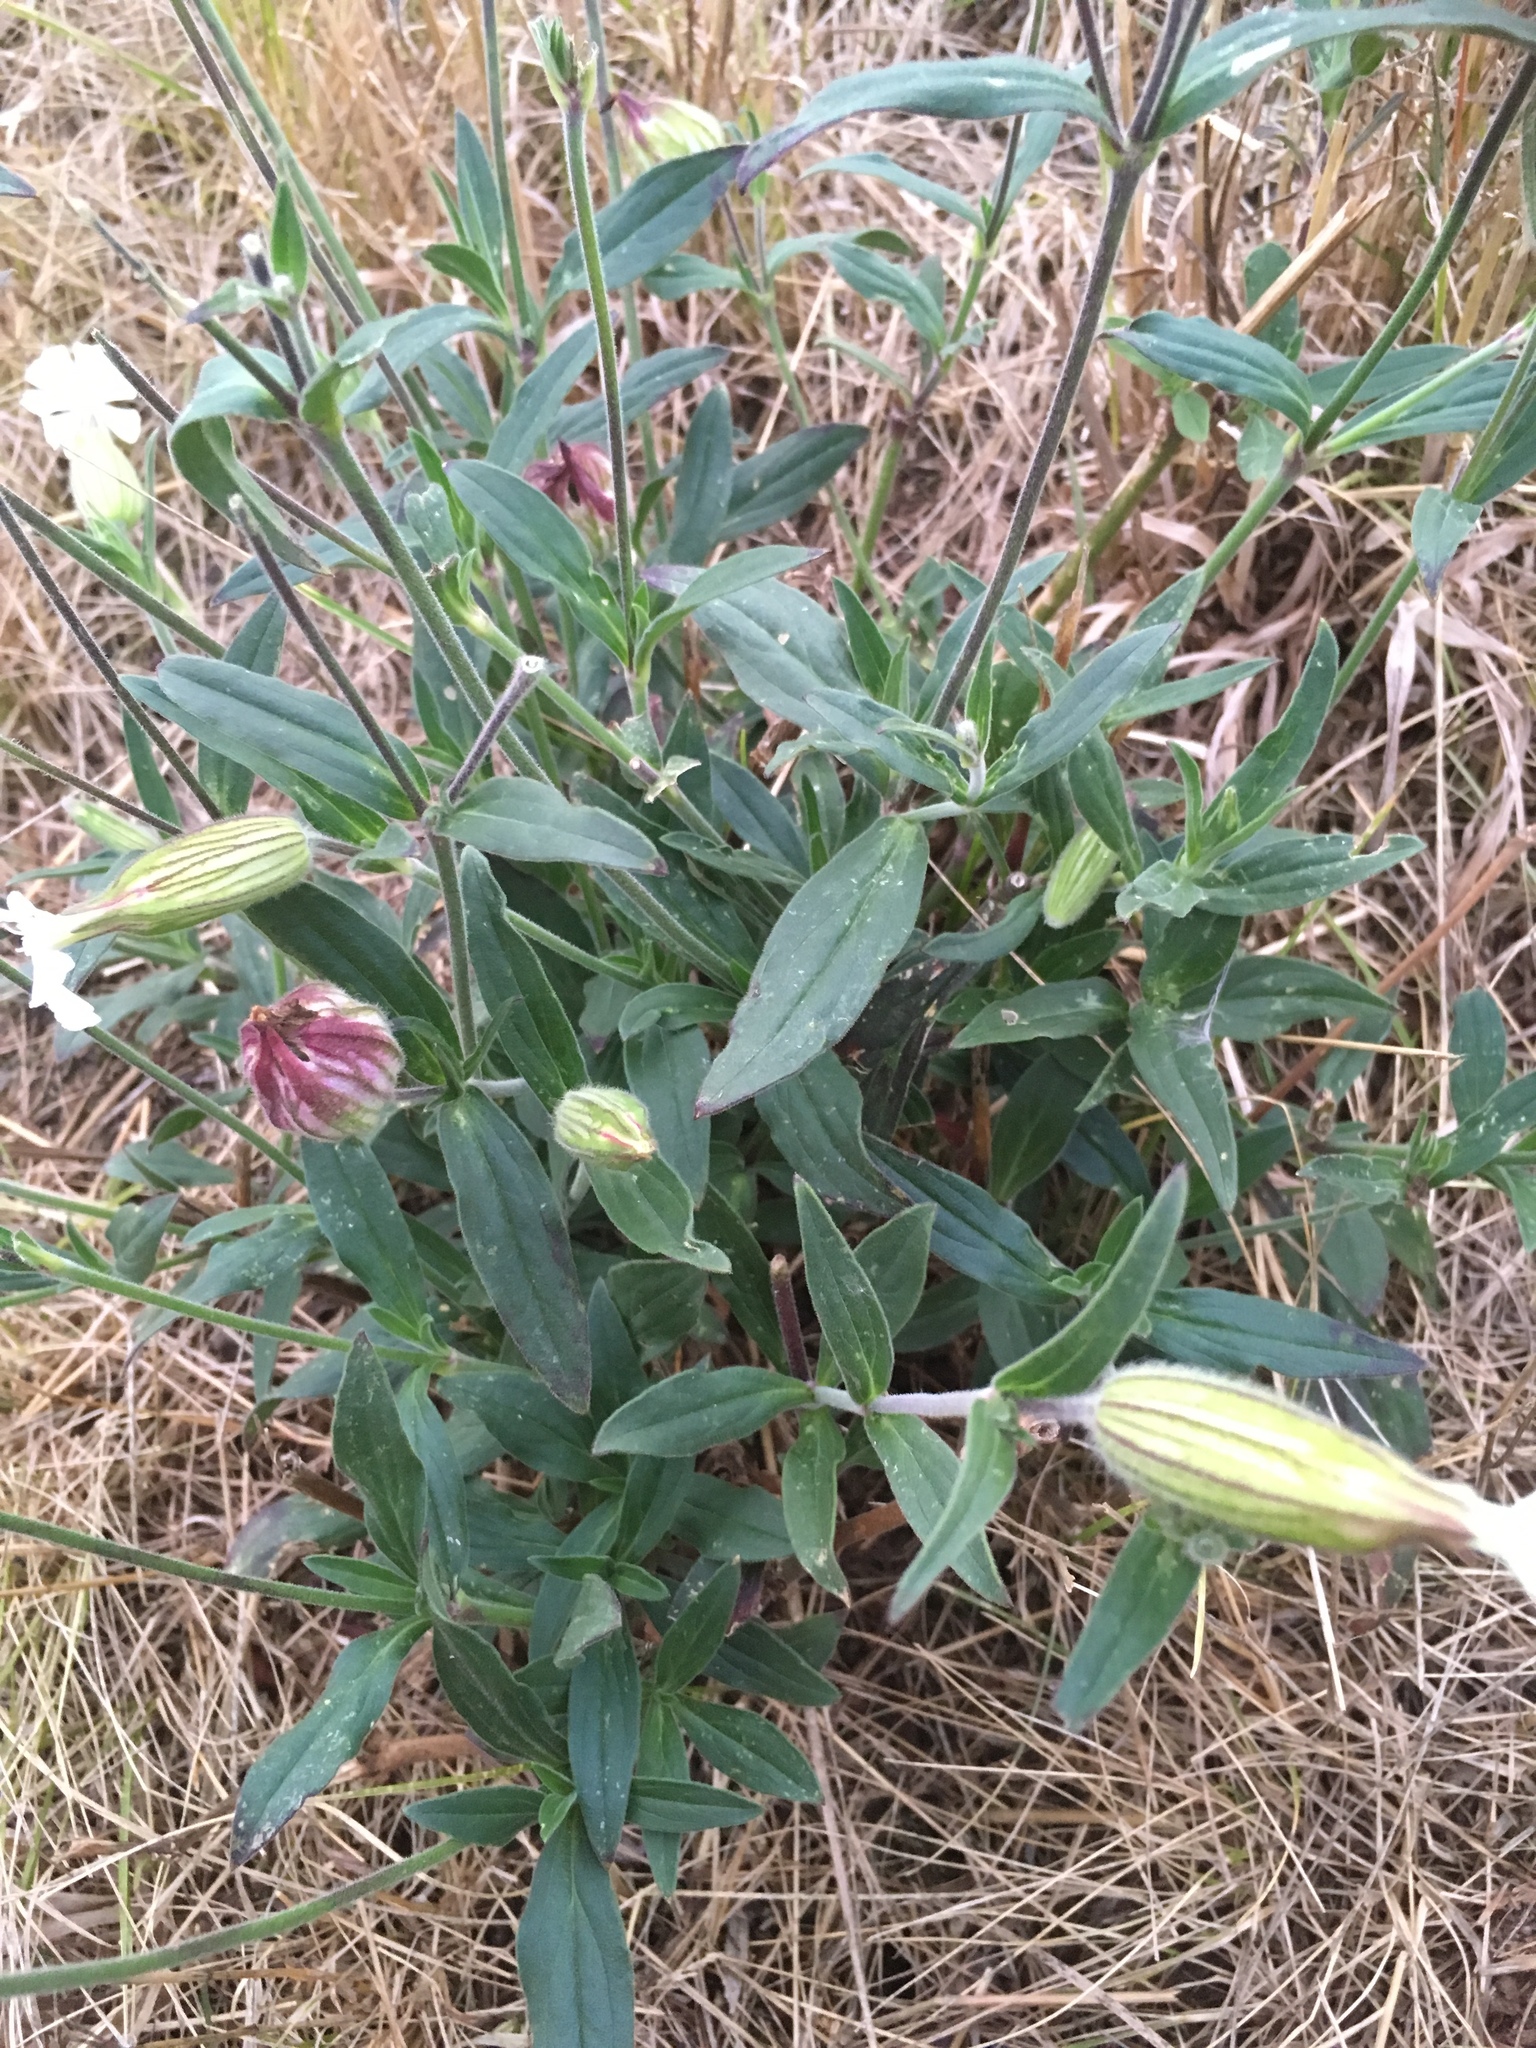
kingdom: Plantae
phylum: Tracheophyta
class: Magnoliopsida
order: Caryophyllales
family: Caryophyllaceae
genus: Silene
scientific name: Silene latifolia
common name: White campion
